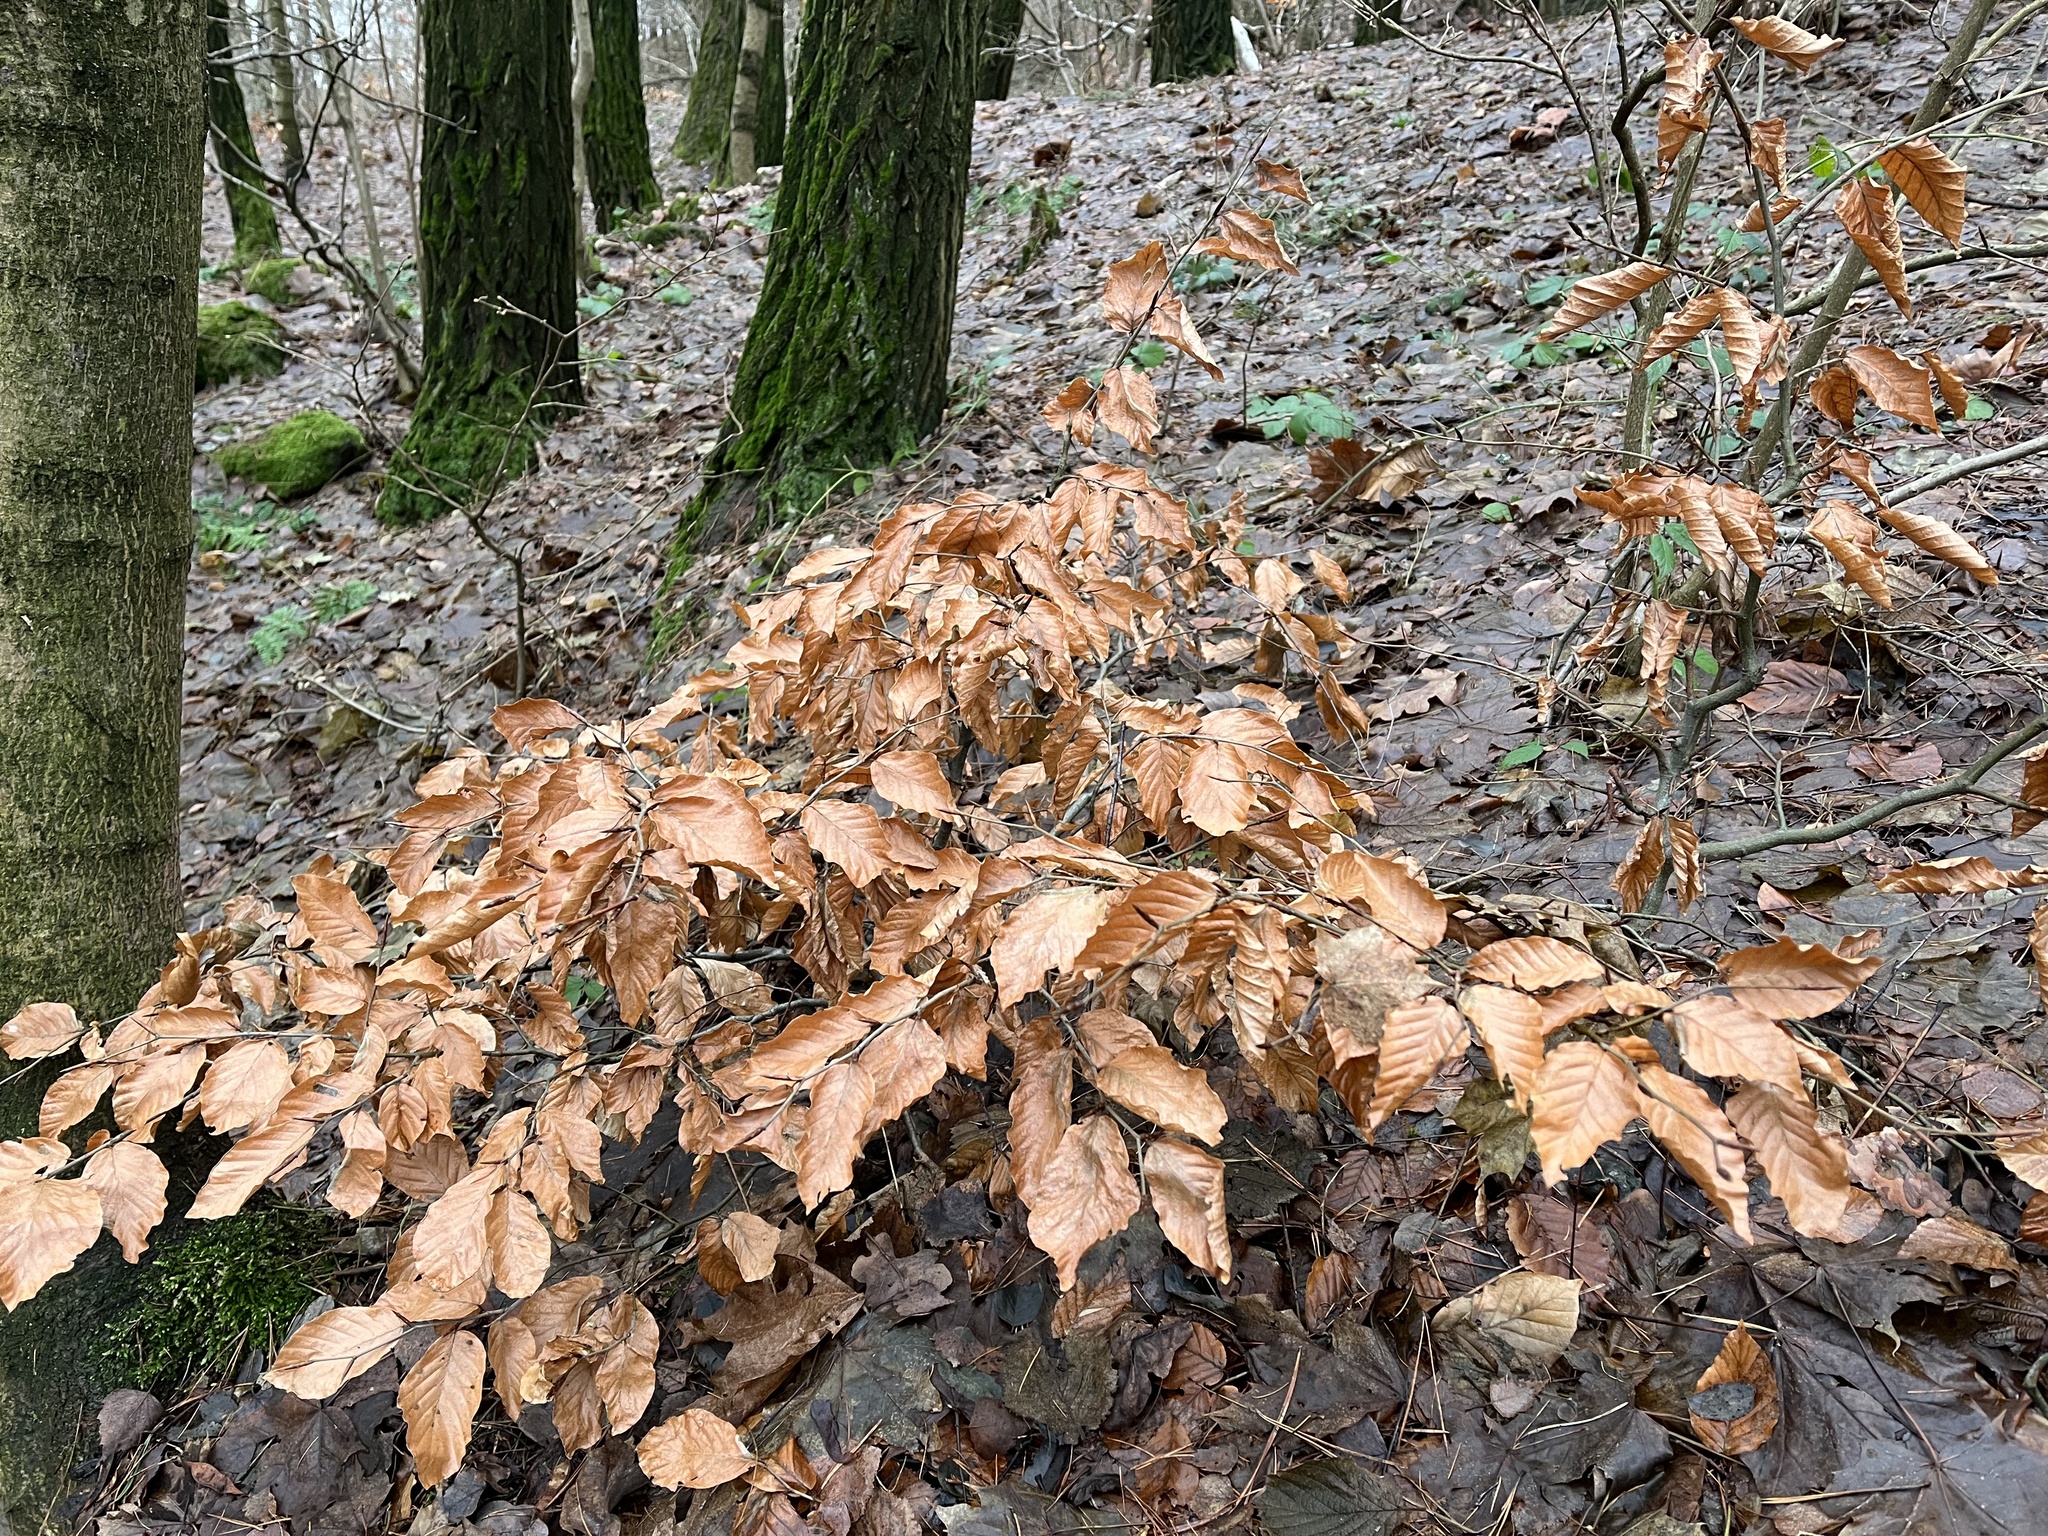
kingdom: Plantae
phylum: Tracheophyta
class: Magnoliopsida
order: Fagales
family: Fagaceae
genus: Fagus
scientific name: Fagus sylvatica
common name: Beech
